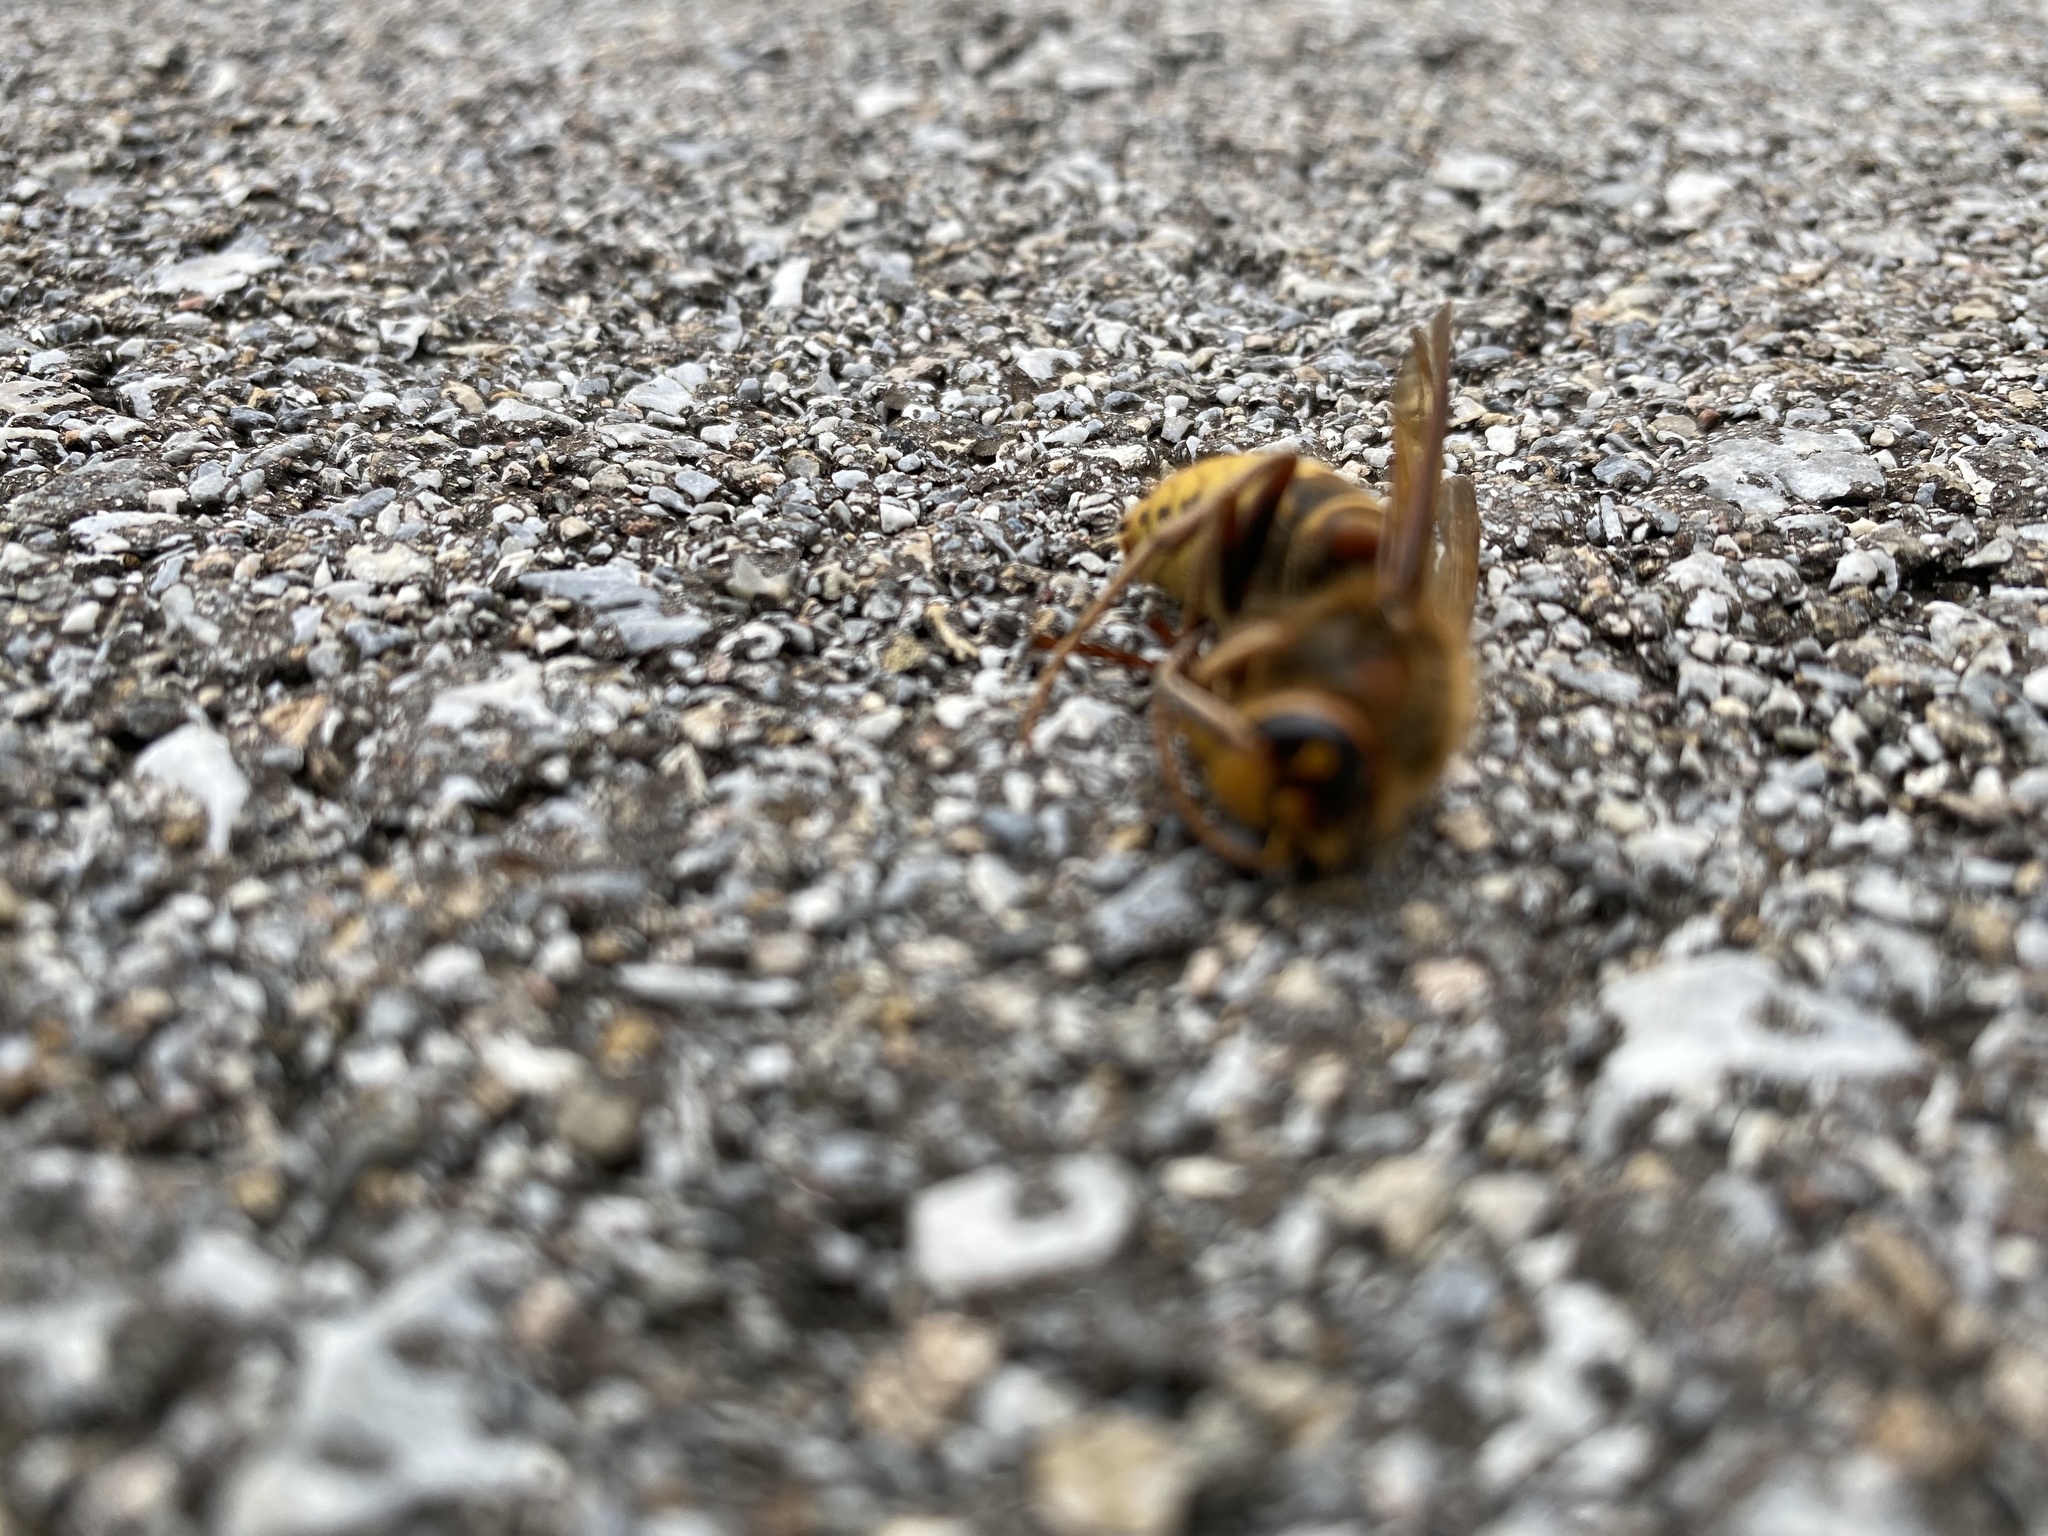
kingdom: Animalia
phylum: Arthropoda
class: Insecta
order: Hymenoptera
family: Vespidae
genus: Vespa
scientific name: Vespa crabro
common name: Hornet
